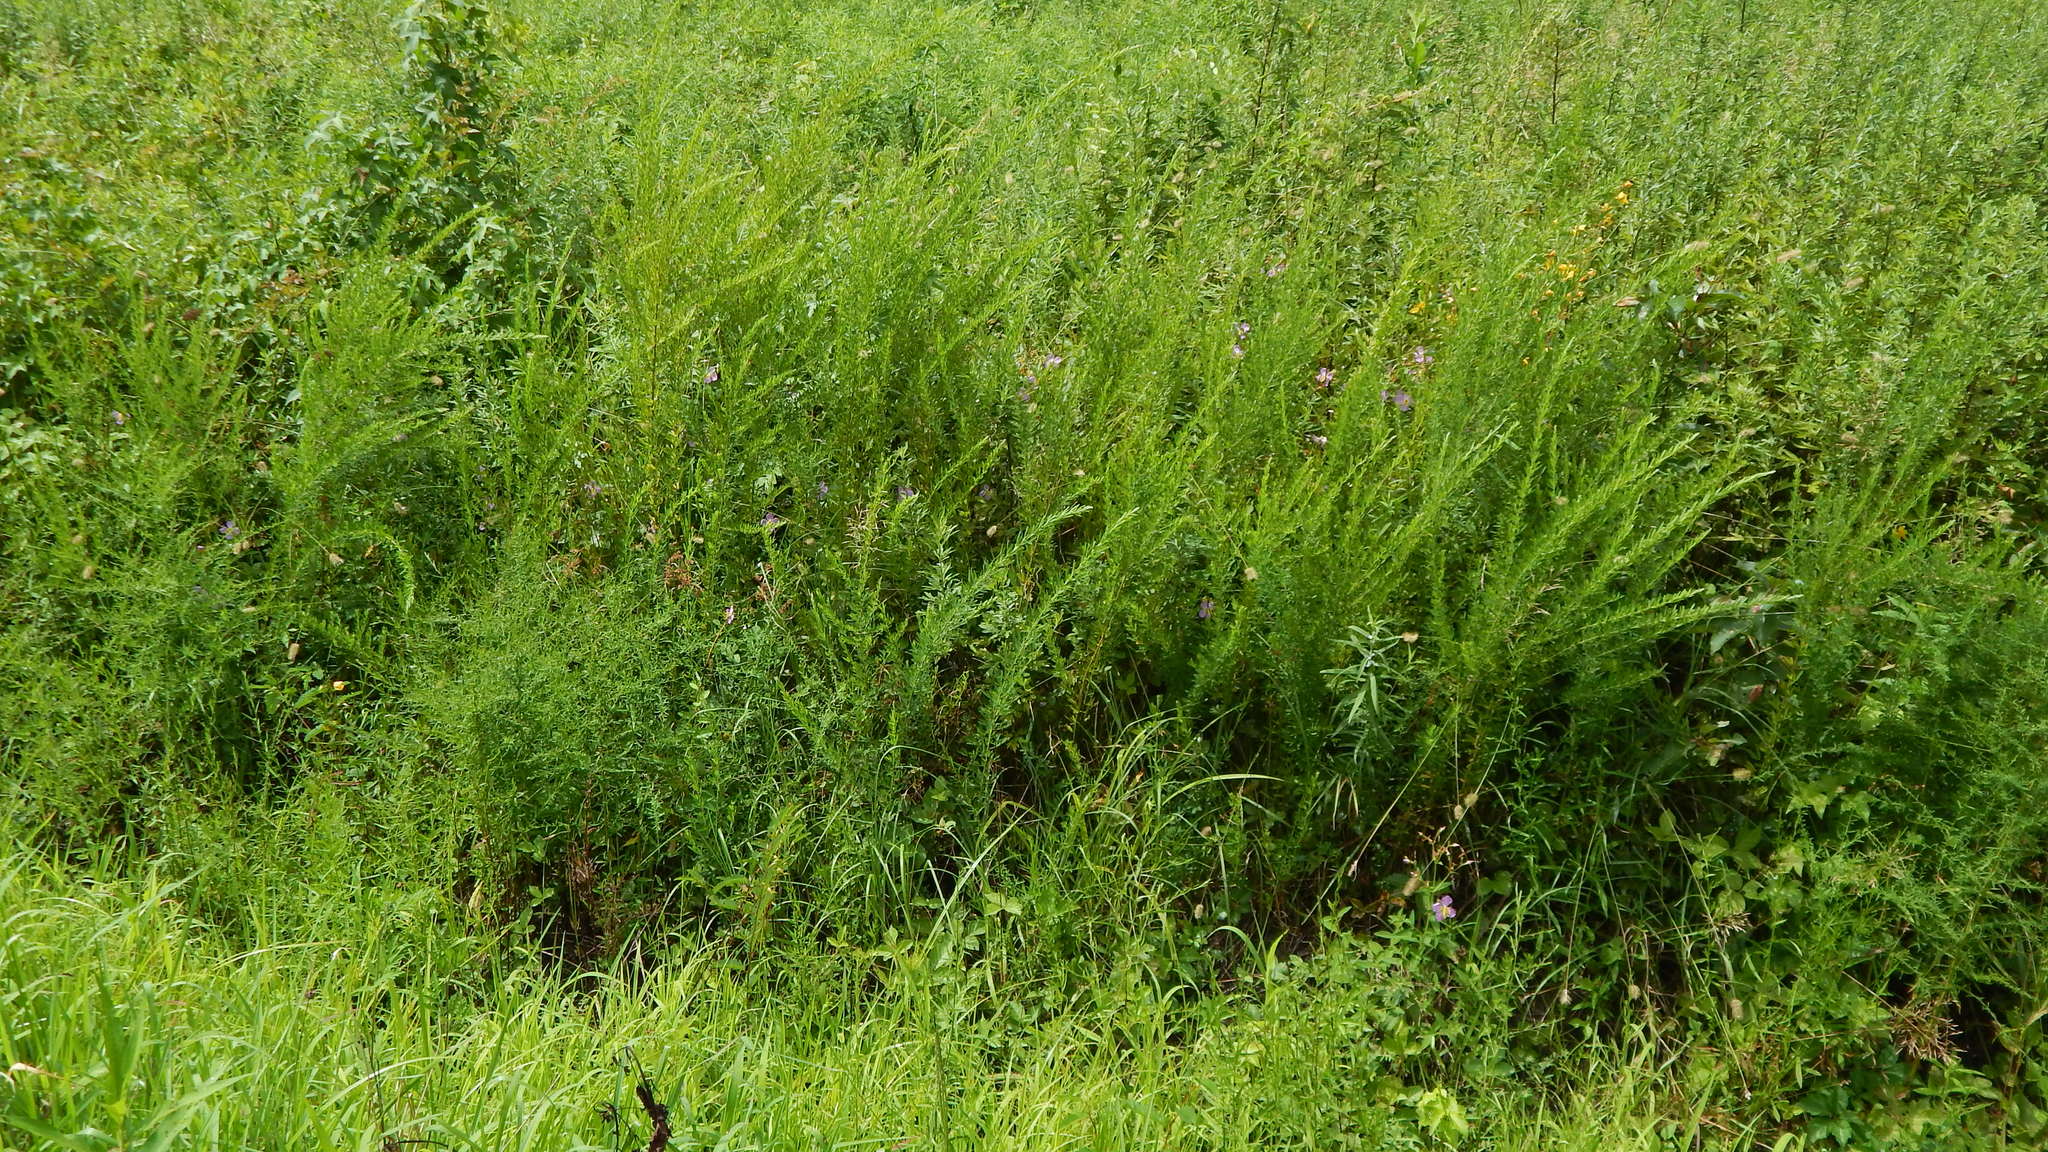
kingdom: Plantae
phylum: Tracheophyta
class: Magnoliopsida
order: Myrtales
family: Melastomataceae
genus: Rhexia
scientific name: Rhexia mariana
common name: Dull meadow-pitcher
